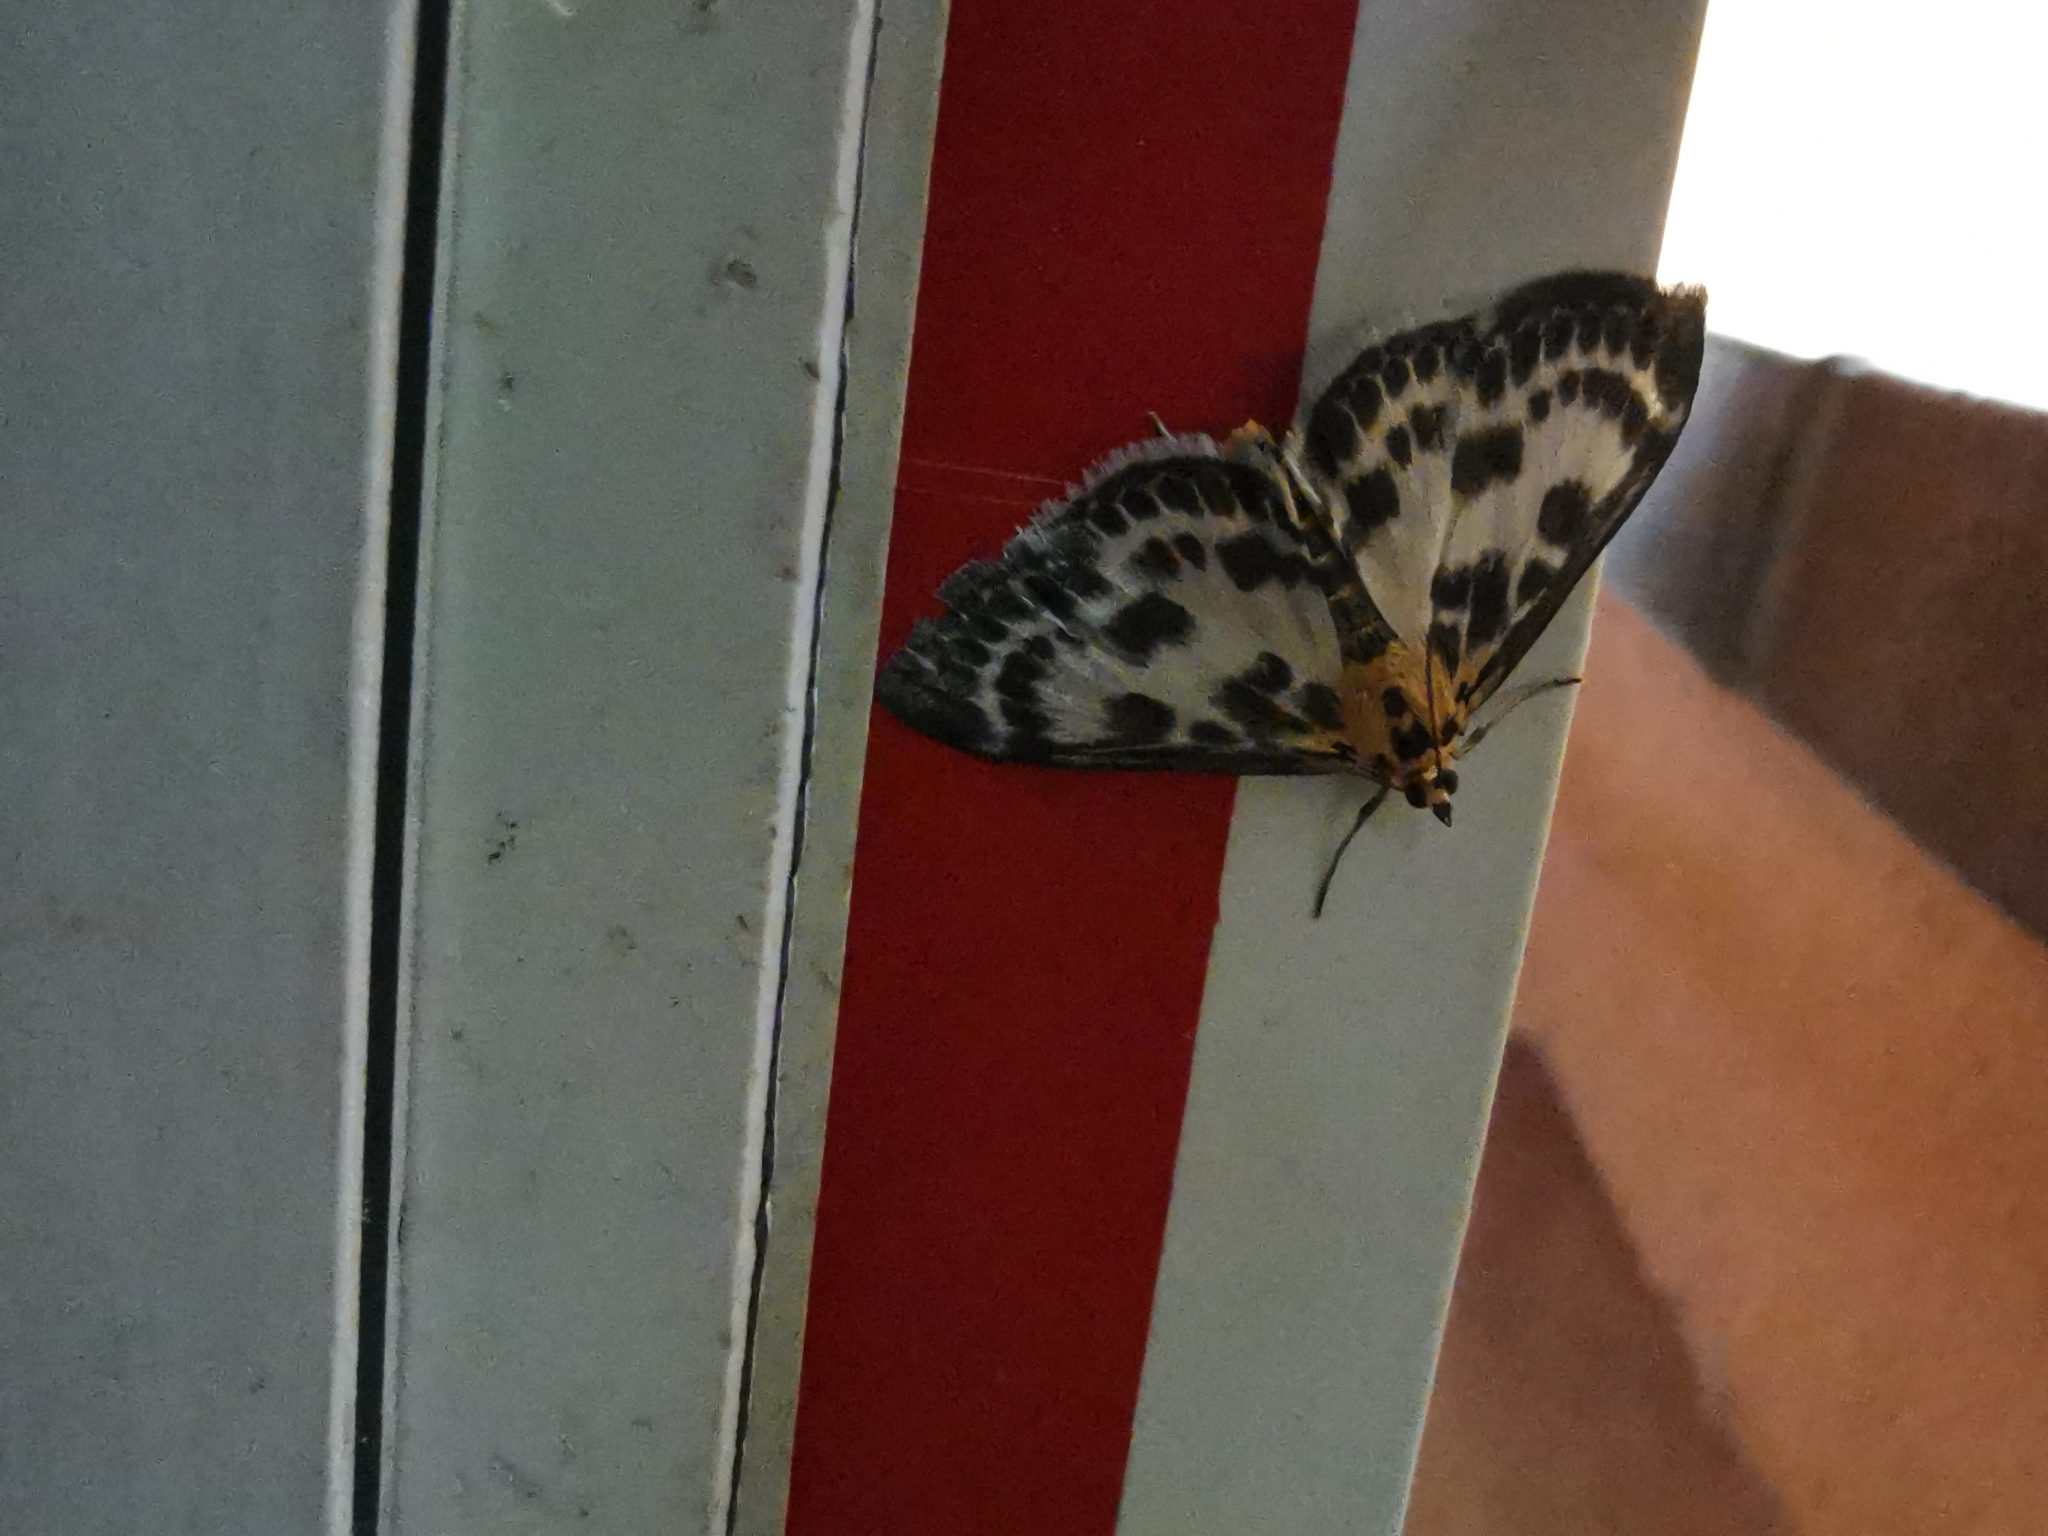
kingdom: Animalia
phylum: Arthropoda
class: Insecta
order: Lepidoptera
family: Crambidae
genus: Anania
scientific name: Anania hortulata
